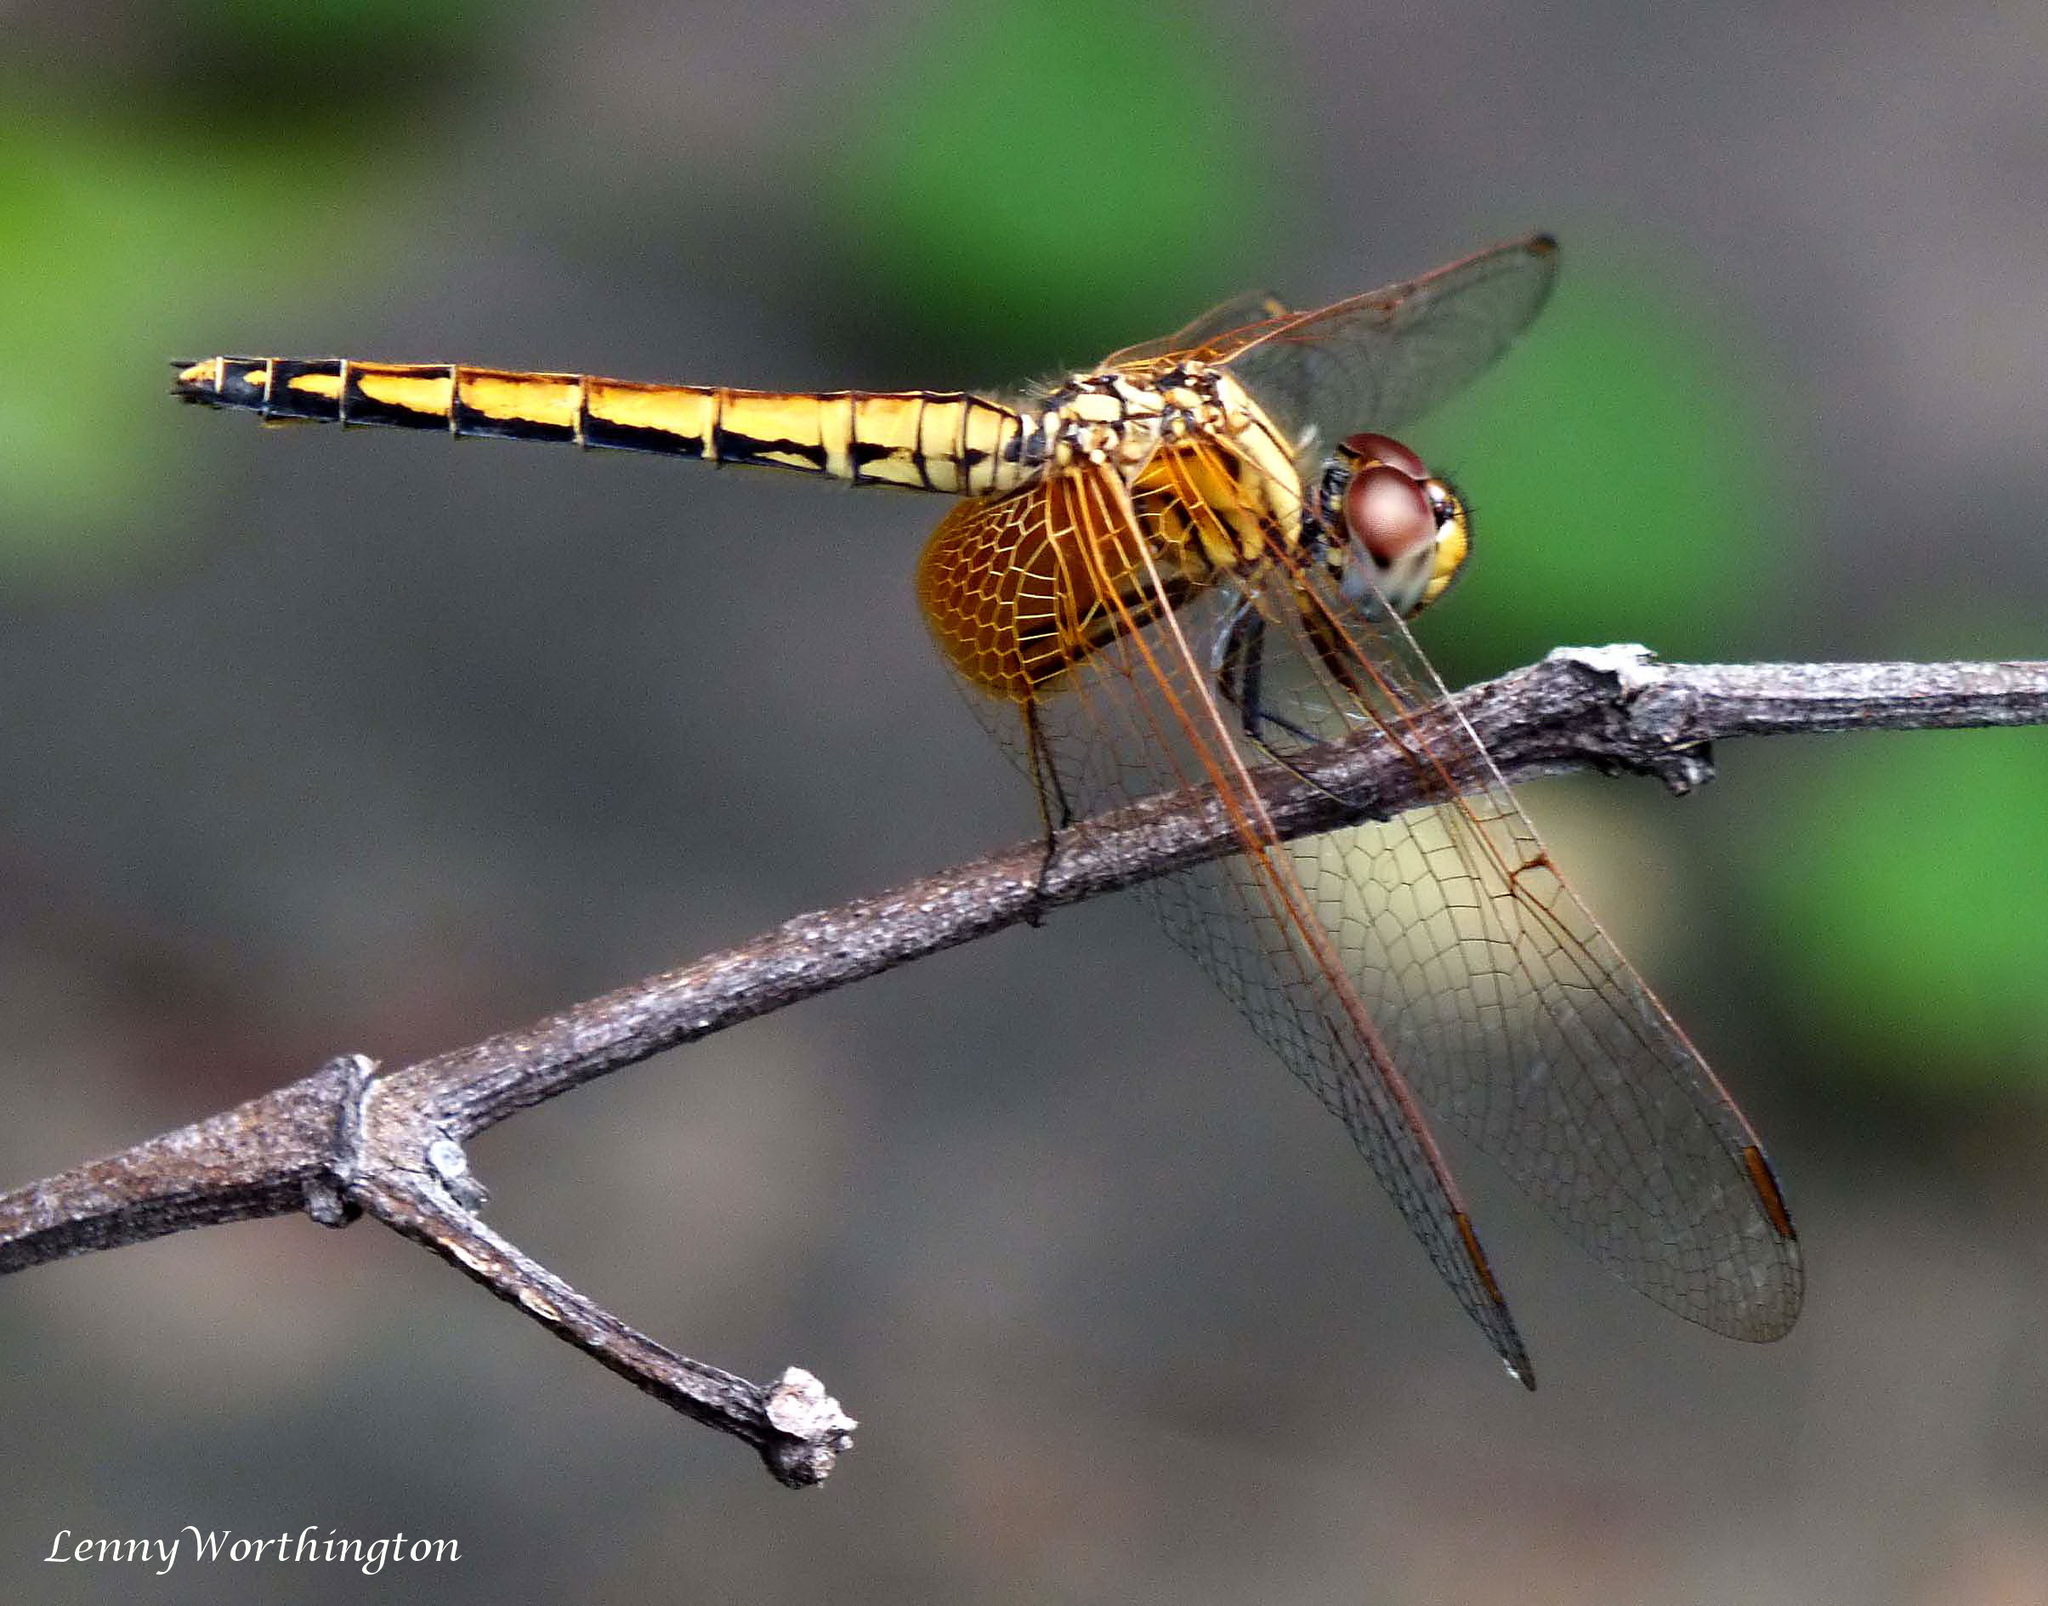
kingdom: Animalia
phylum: Arthropoda
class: Insecta
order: Odonata
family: Libellulidae
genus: Trithemis
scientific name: Trithemis aurora
